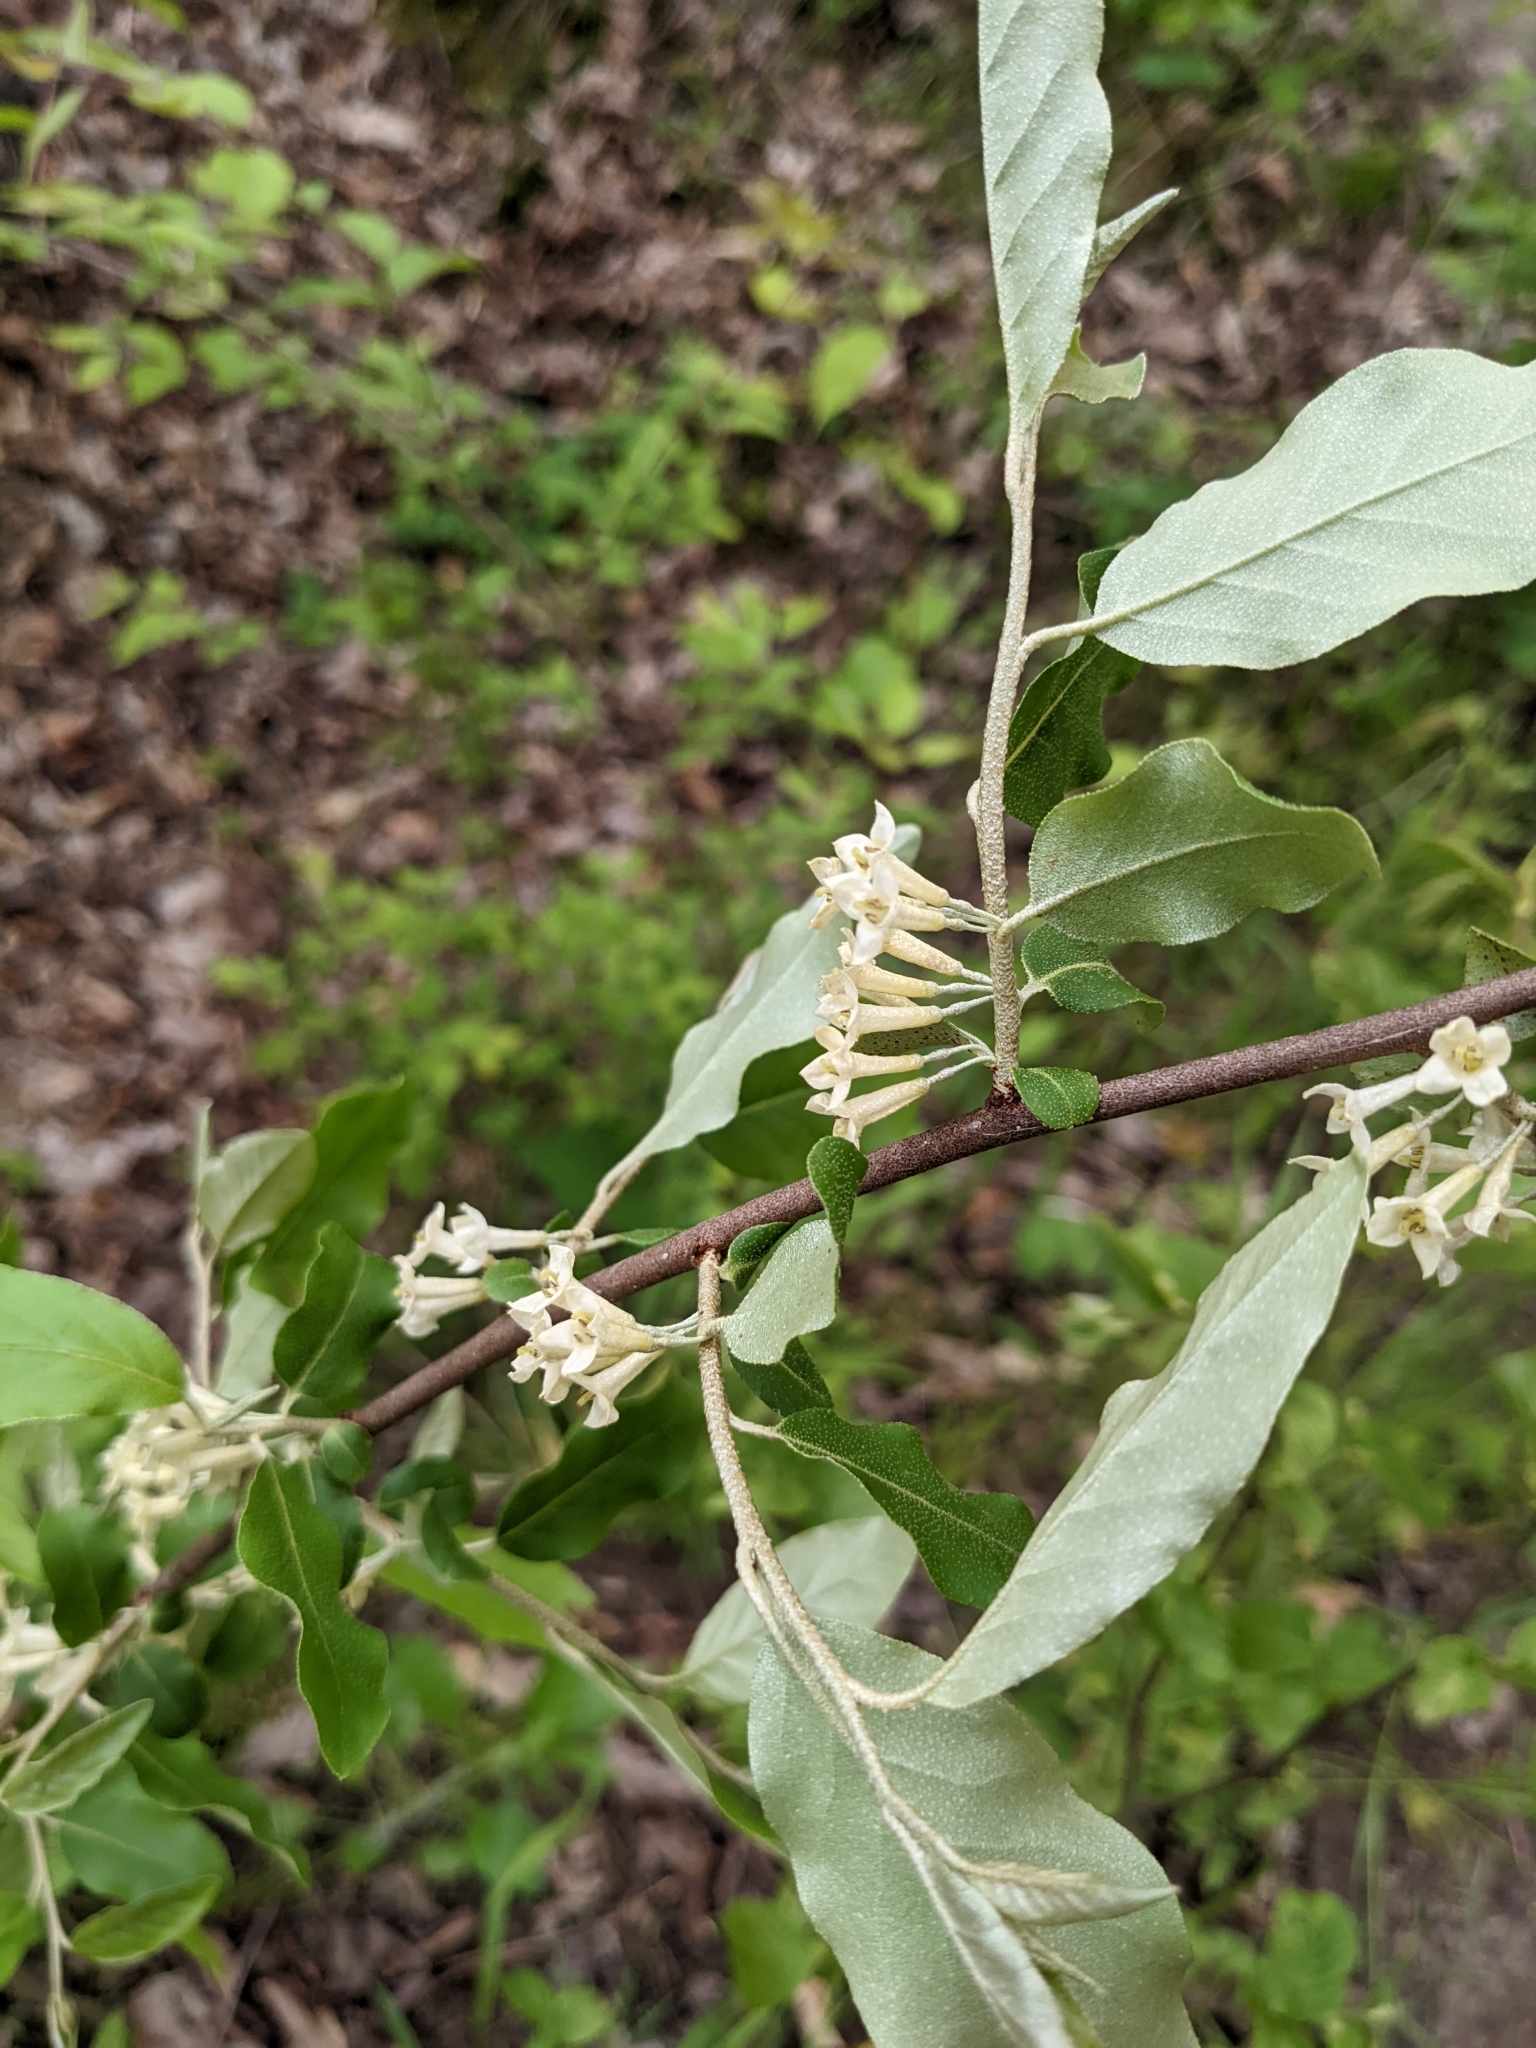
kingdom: Plantae
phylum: Tracheophyta
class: Magnoliopsida
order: Rosales
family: Elaeagnaceae
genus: Elaeagnus
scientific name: Elaeagnus umbellata
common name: Autumn olive
